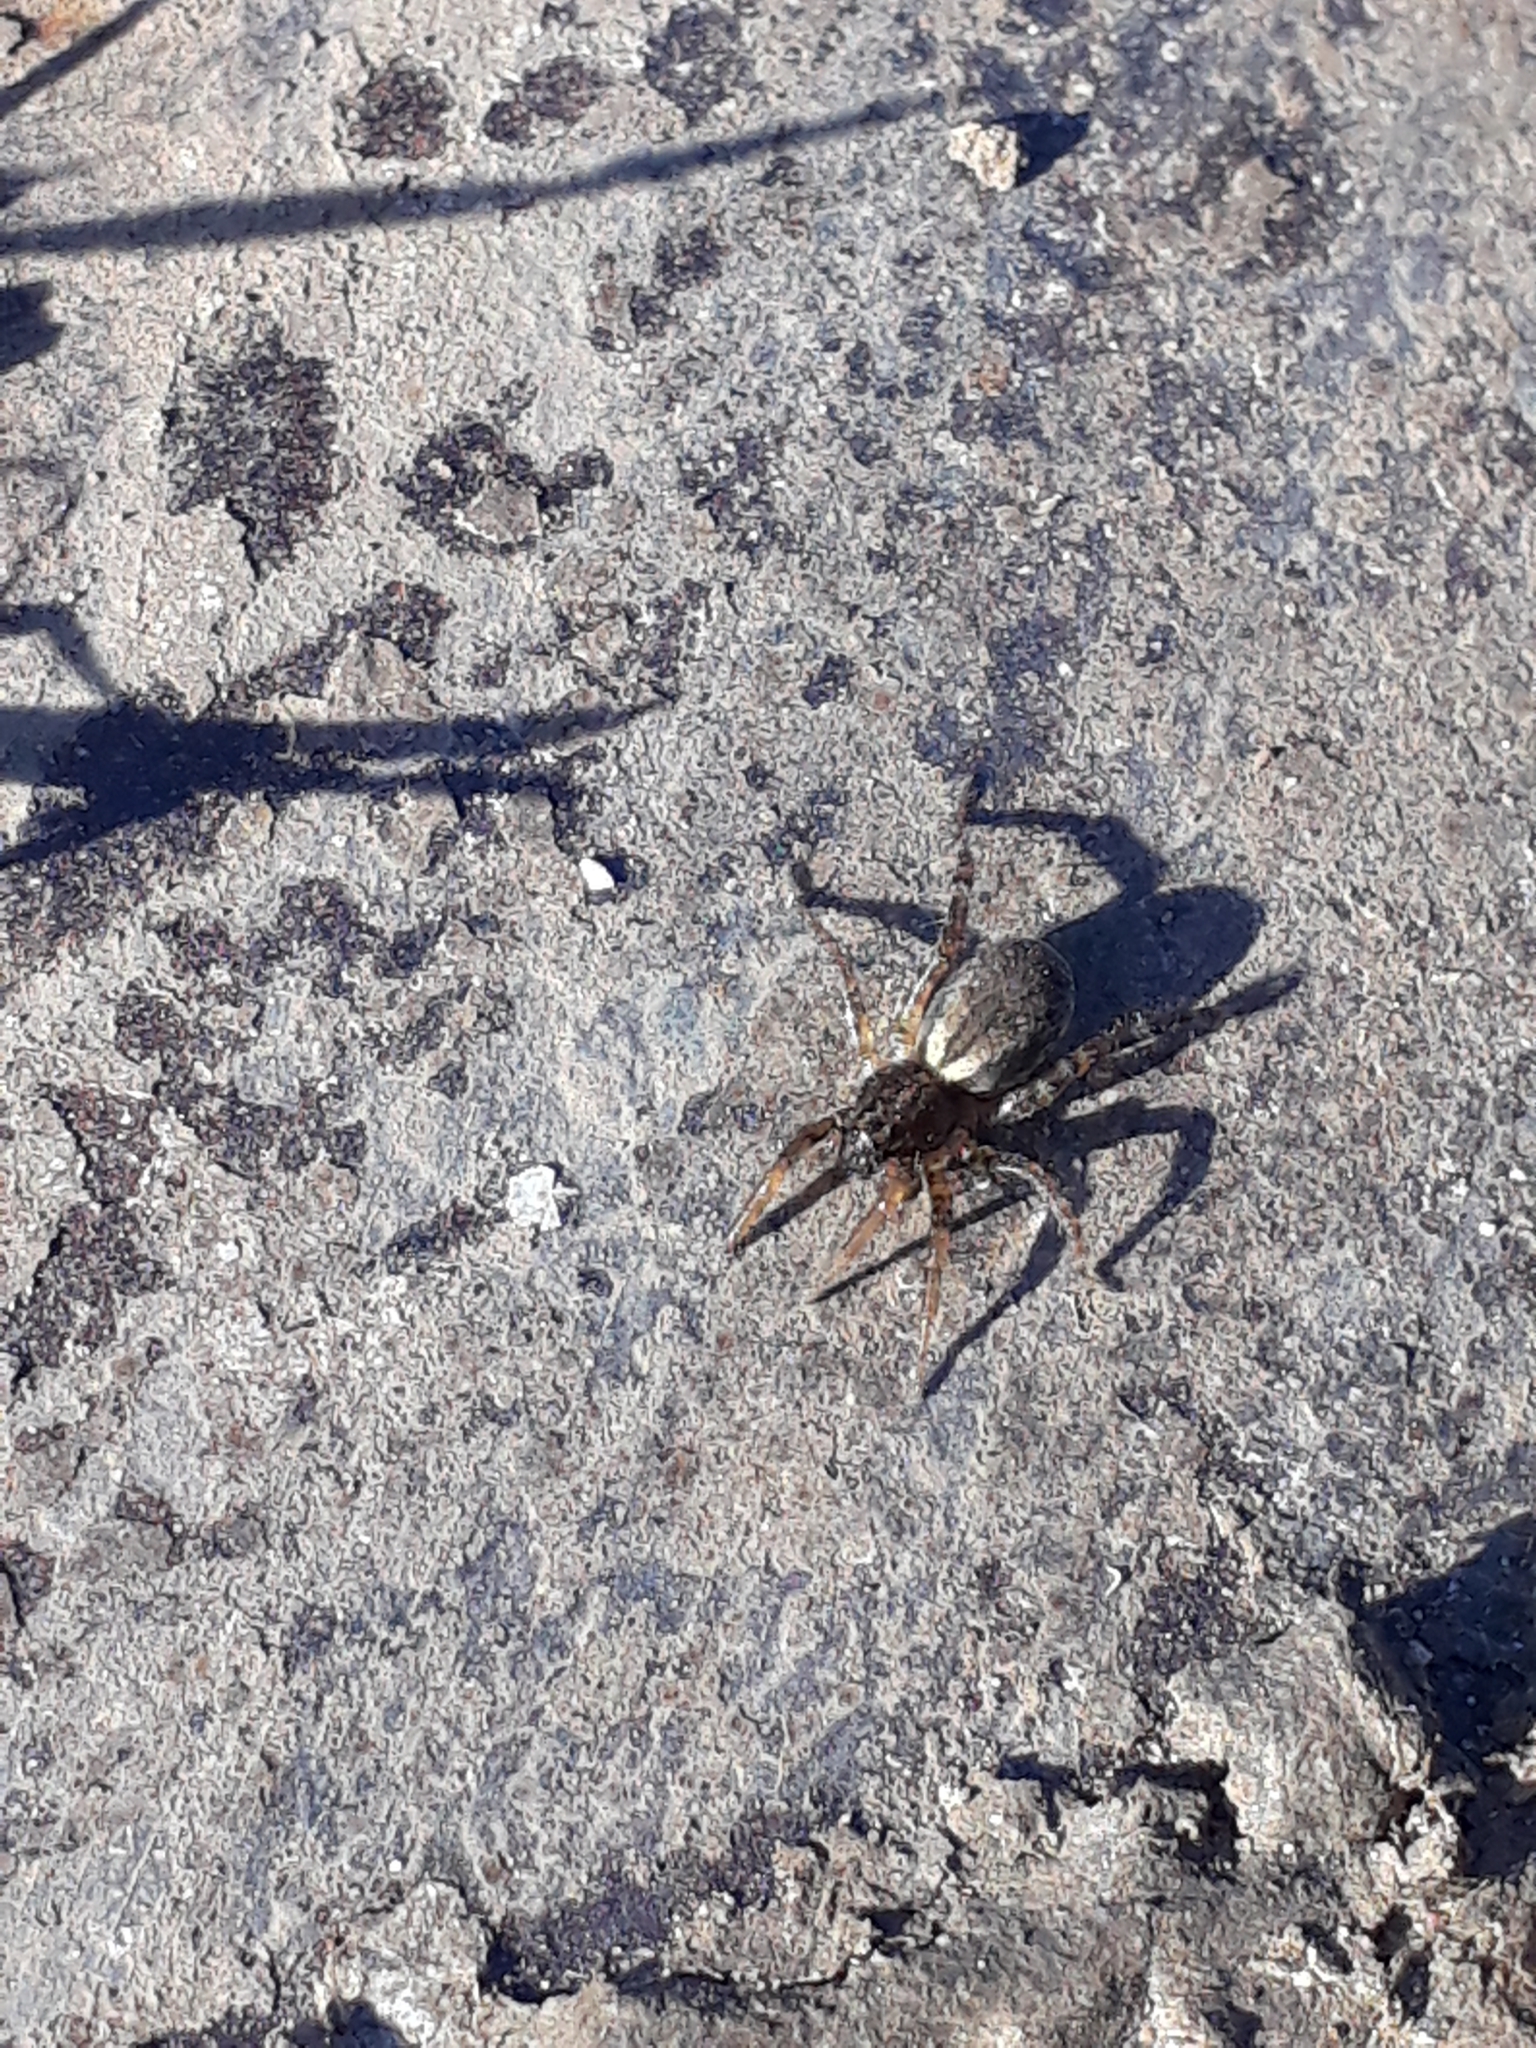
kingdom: Animalia
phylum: Arthropoda
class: Arachnida
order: Araneae
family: Lycosidae
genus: Abaycosa
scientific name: Abaycosa nanica
